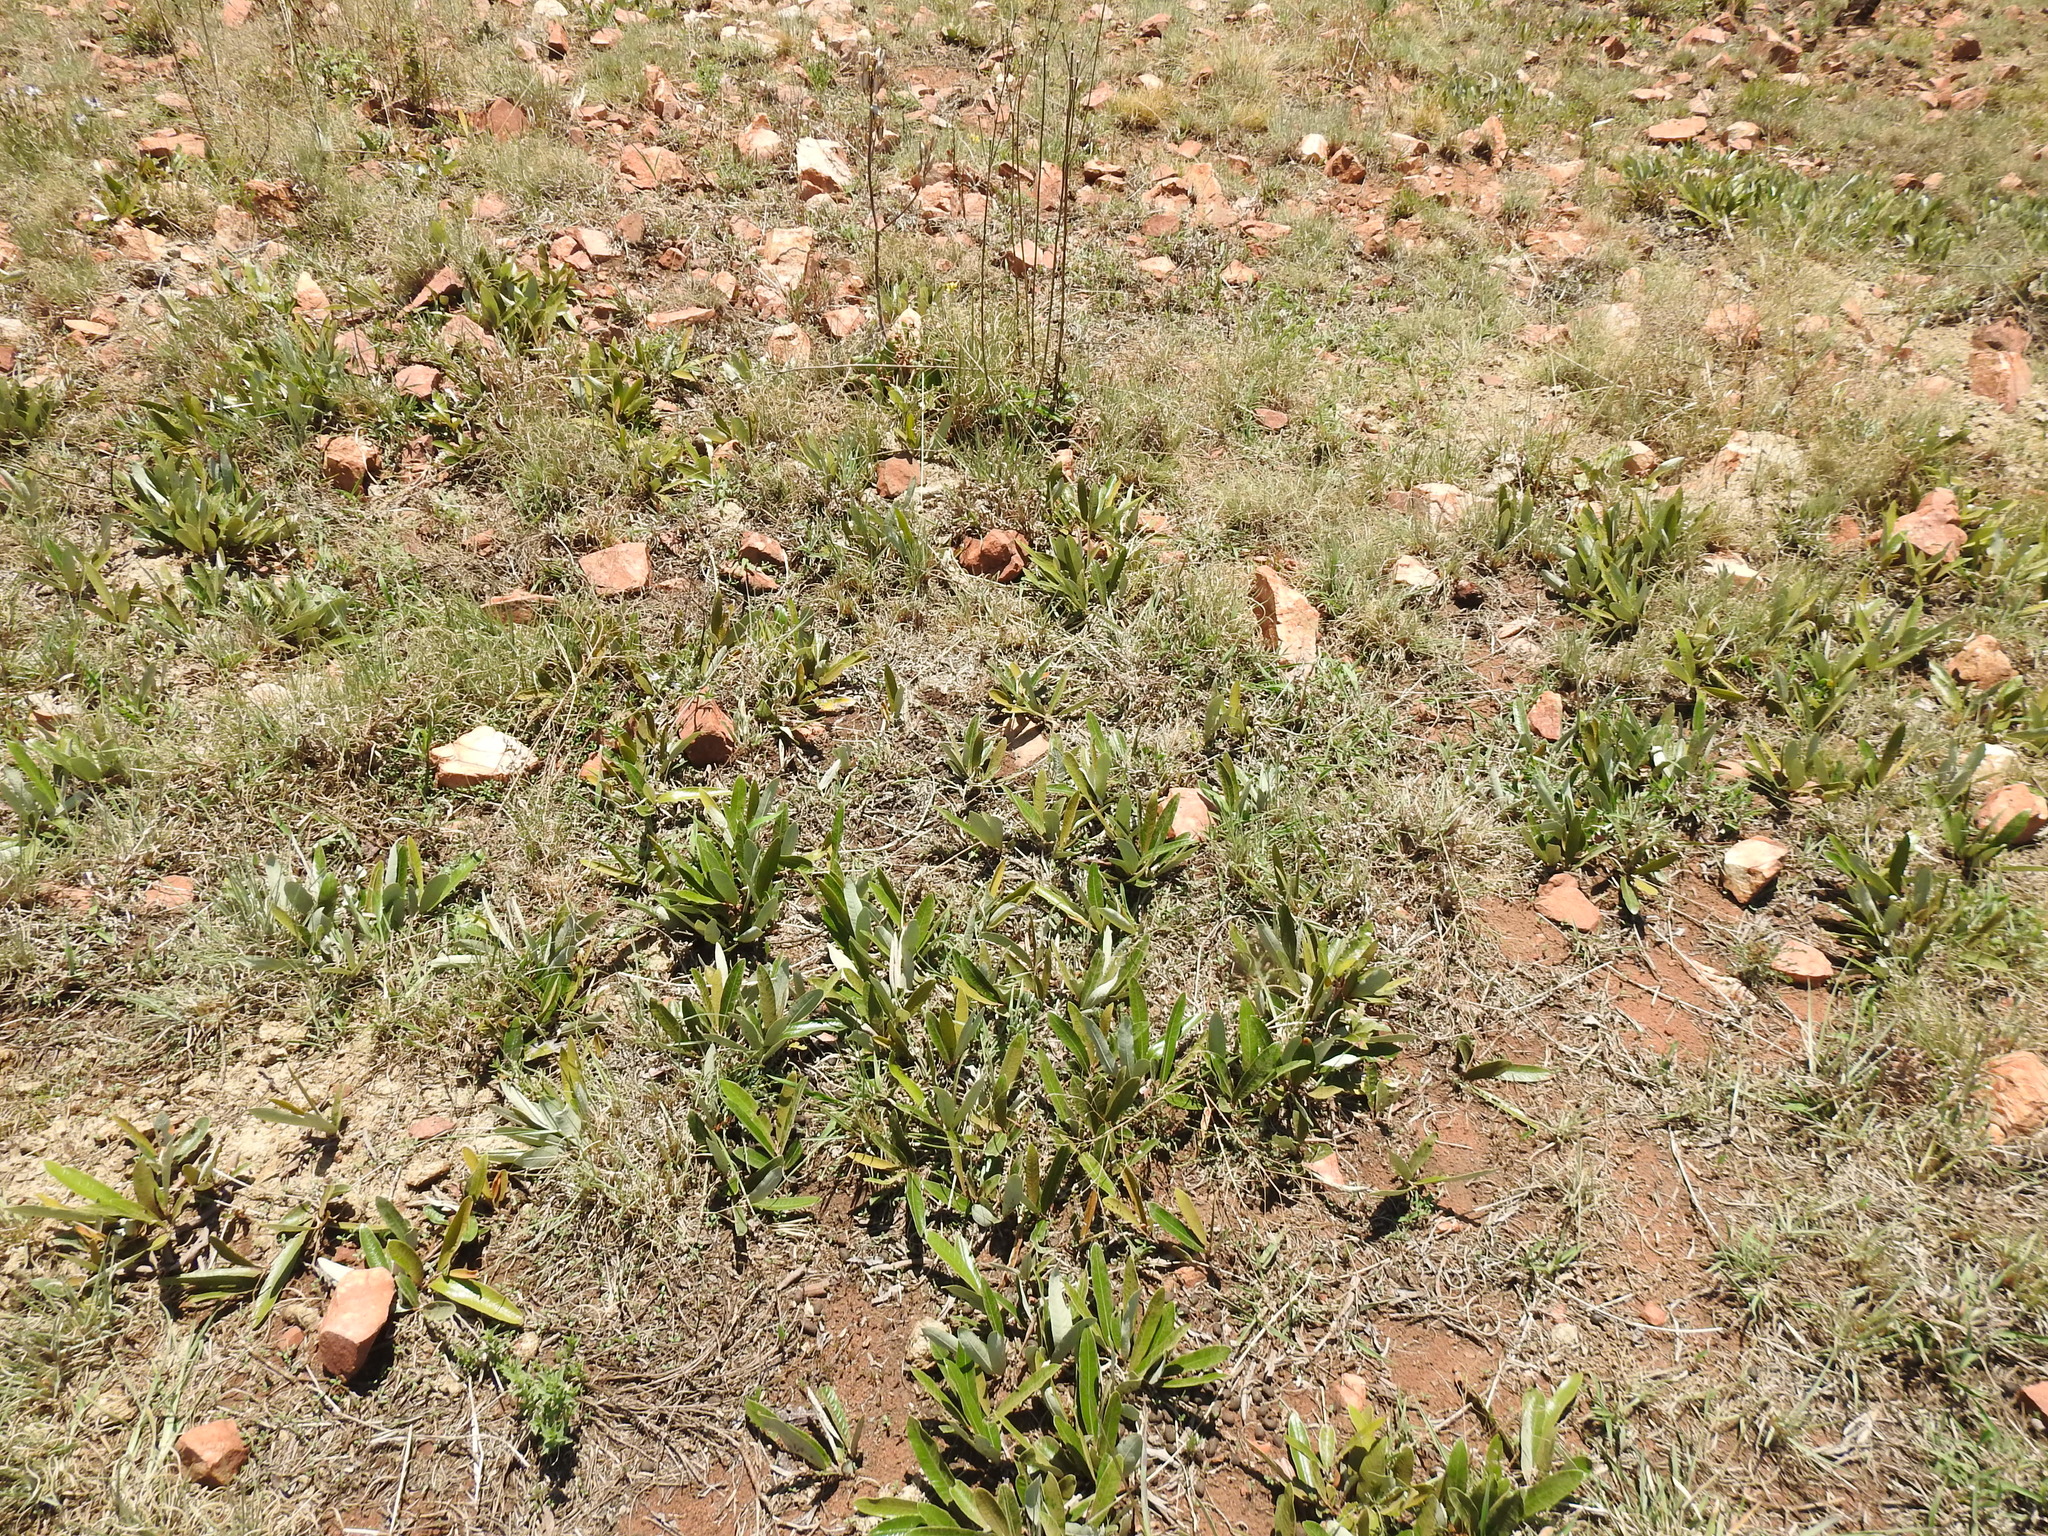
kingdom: Plantae
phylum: Tracheophyta
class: Magnoliopsida
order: Malpighiales
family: Chrysobalanaceae
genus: Parinari
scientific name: Parinari capensis
